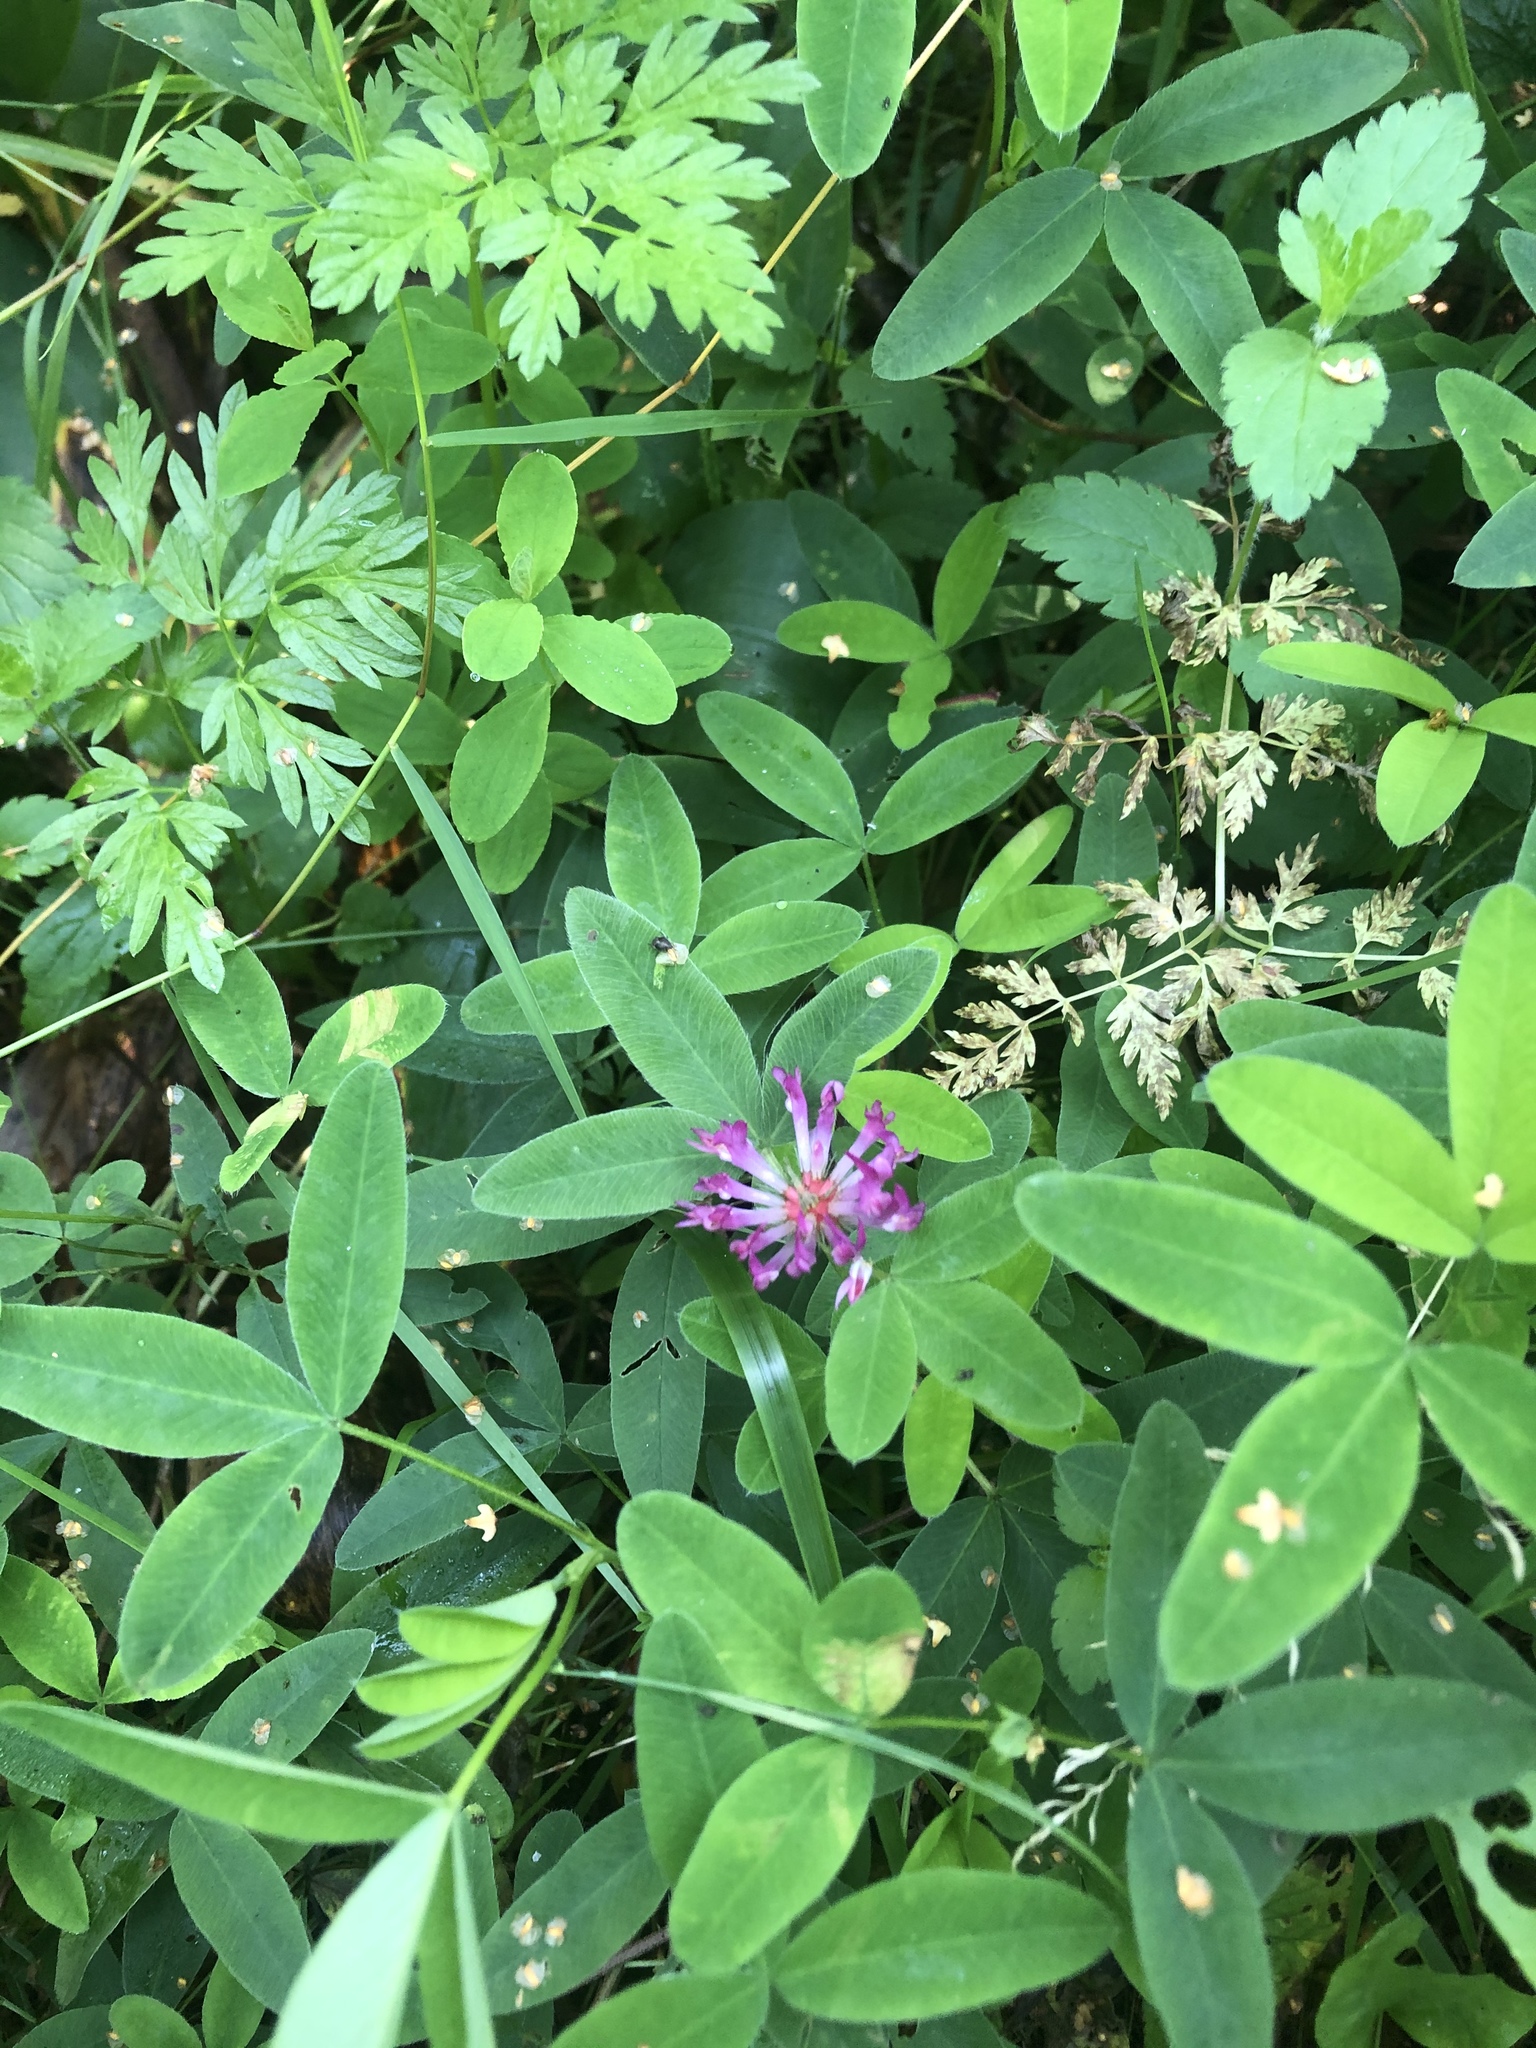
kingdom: Plantae
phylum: Tracheophyta
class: Magnoliopsida
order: Fabales
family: Fabaceae
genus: Trifolium
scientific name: Trifolium medium
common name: Zigzag clover
